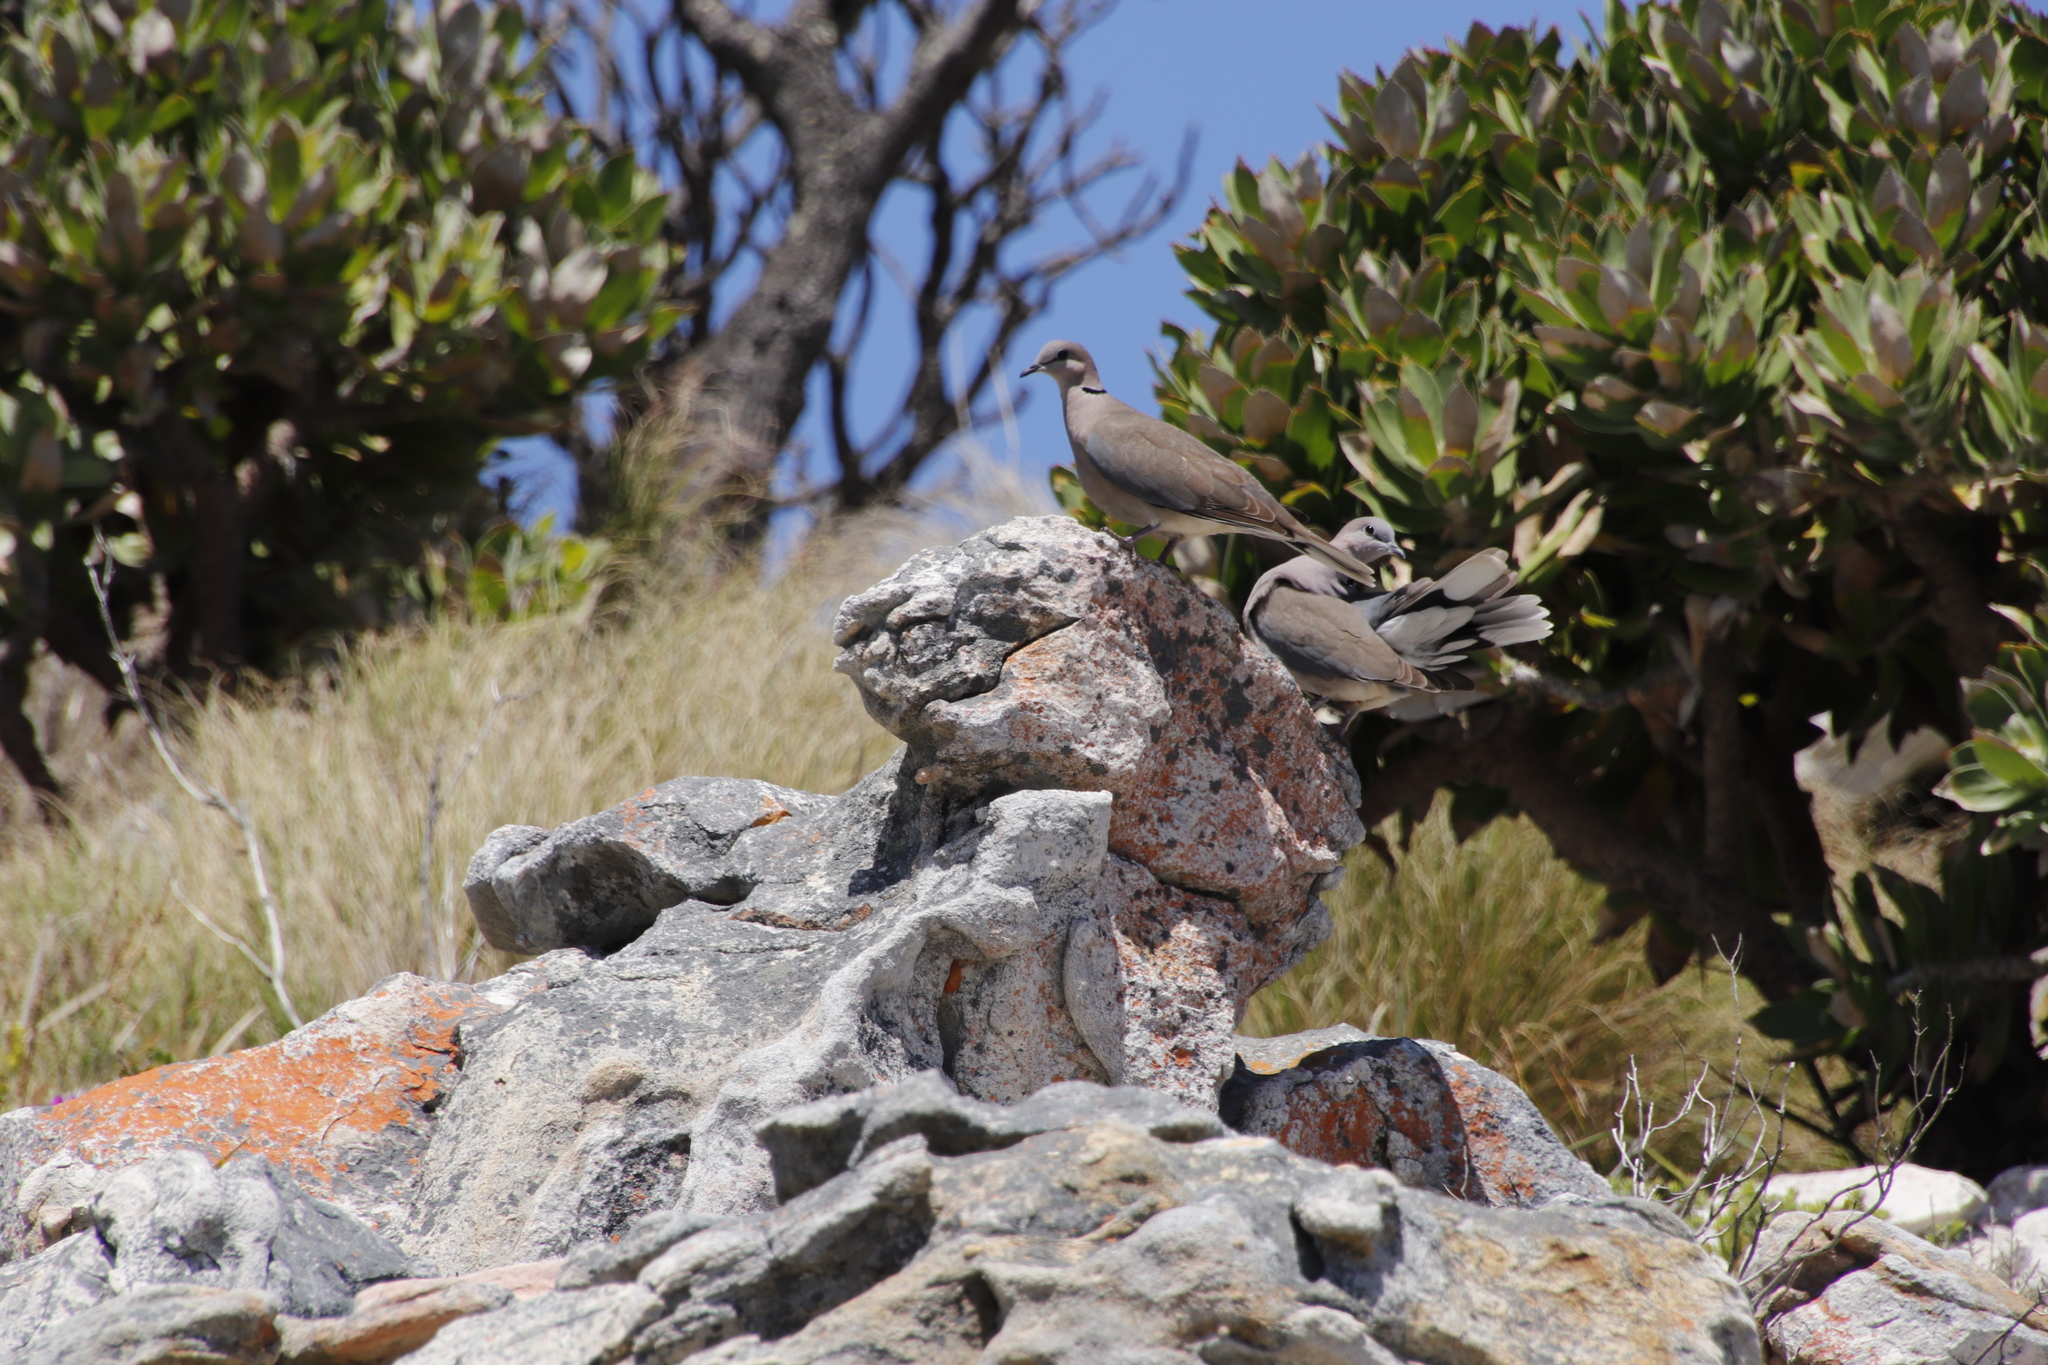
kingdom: Animalia
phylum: Chordata
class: Aves
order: Columbiformes
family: Columbidae
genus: Streptopelia
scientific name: Streptopelia capicola
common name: Ring-necked dove
